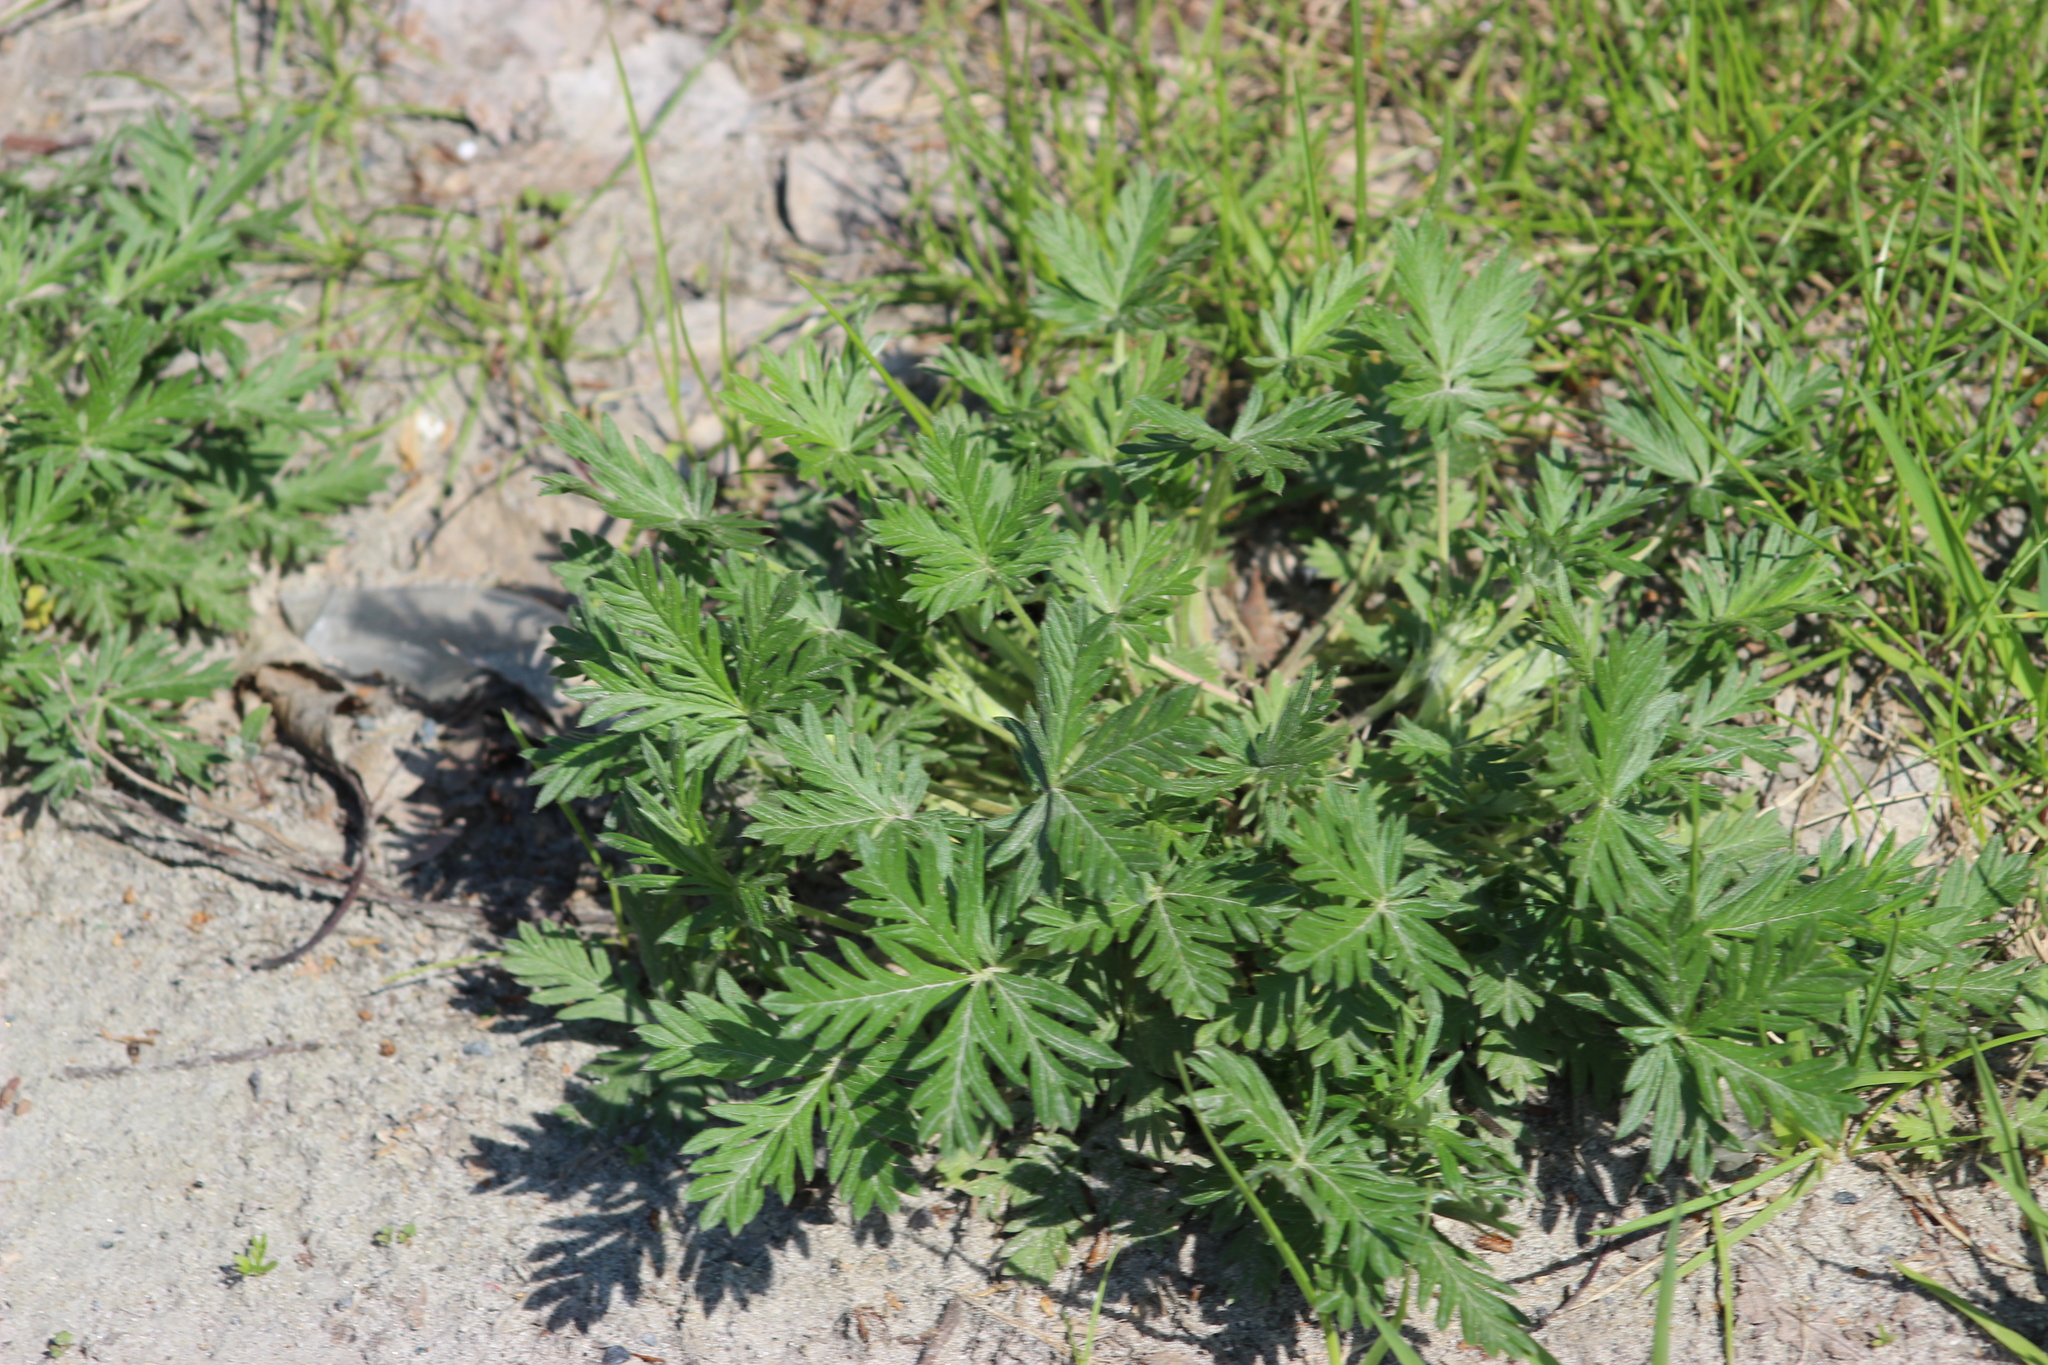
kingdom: Plantae
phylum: Tracheophyta
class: Magnoliopsida
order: Rosales
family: Rosaceae
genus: Potentilla
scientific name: Potentilla argentea
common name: Hoary cinquefoil
